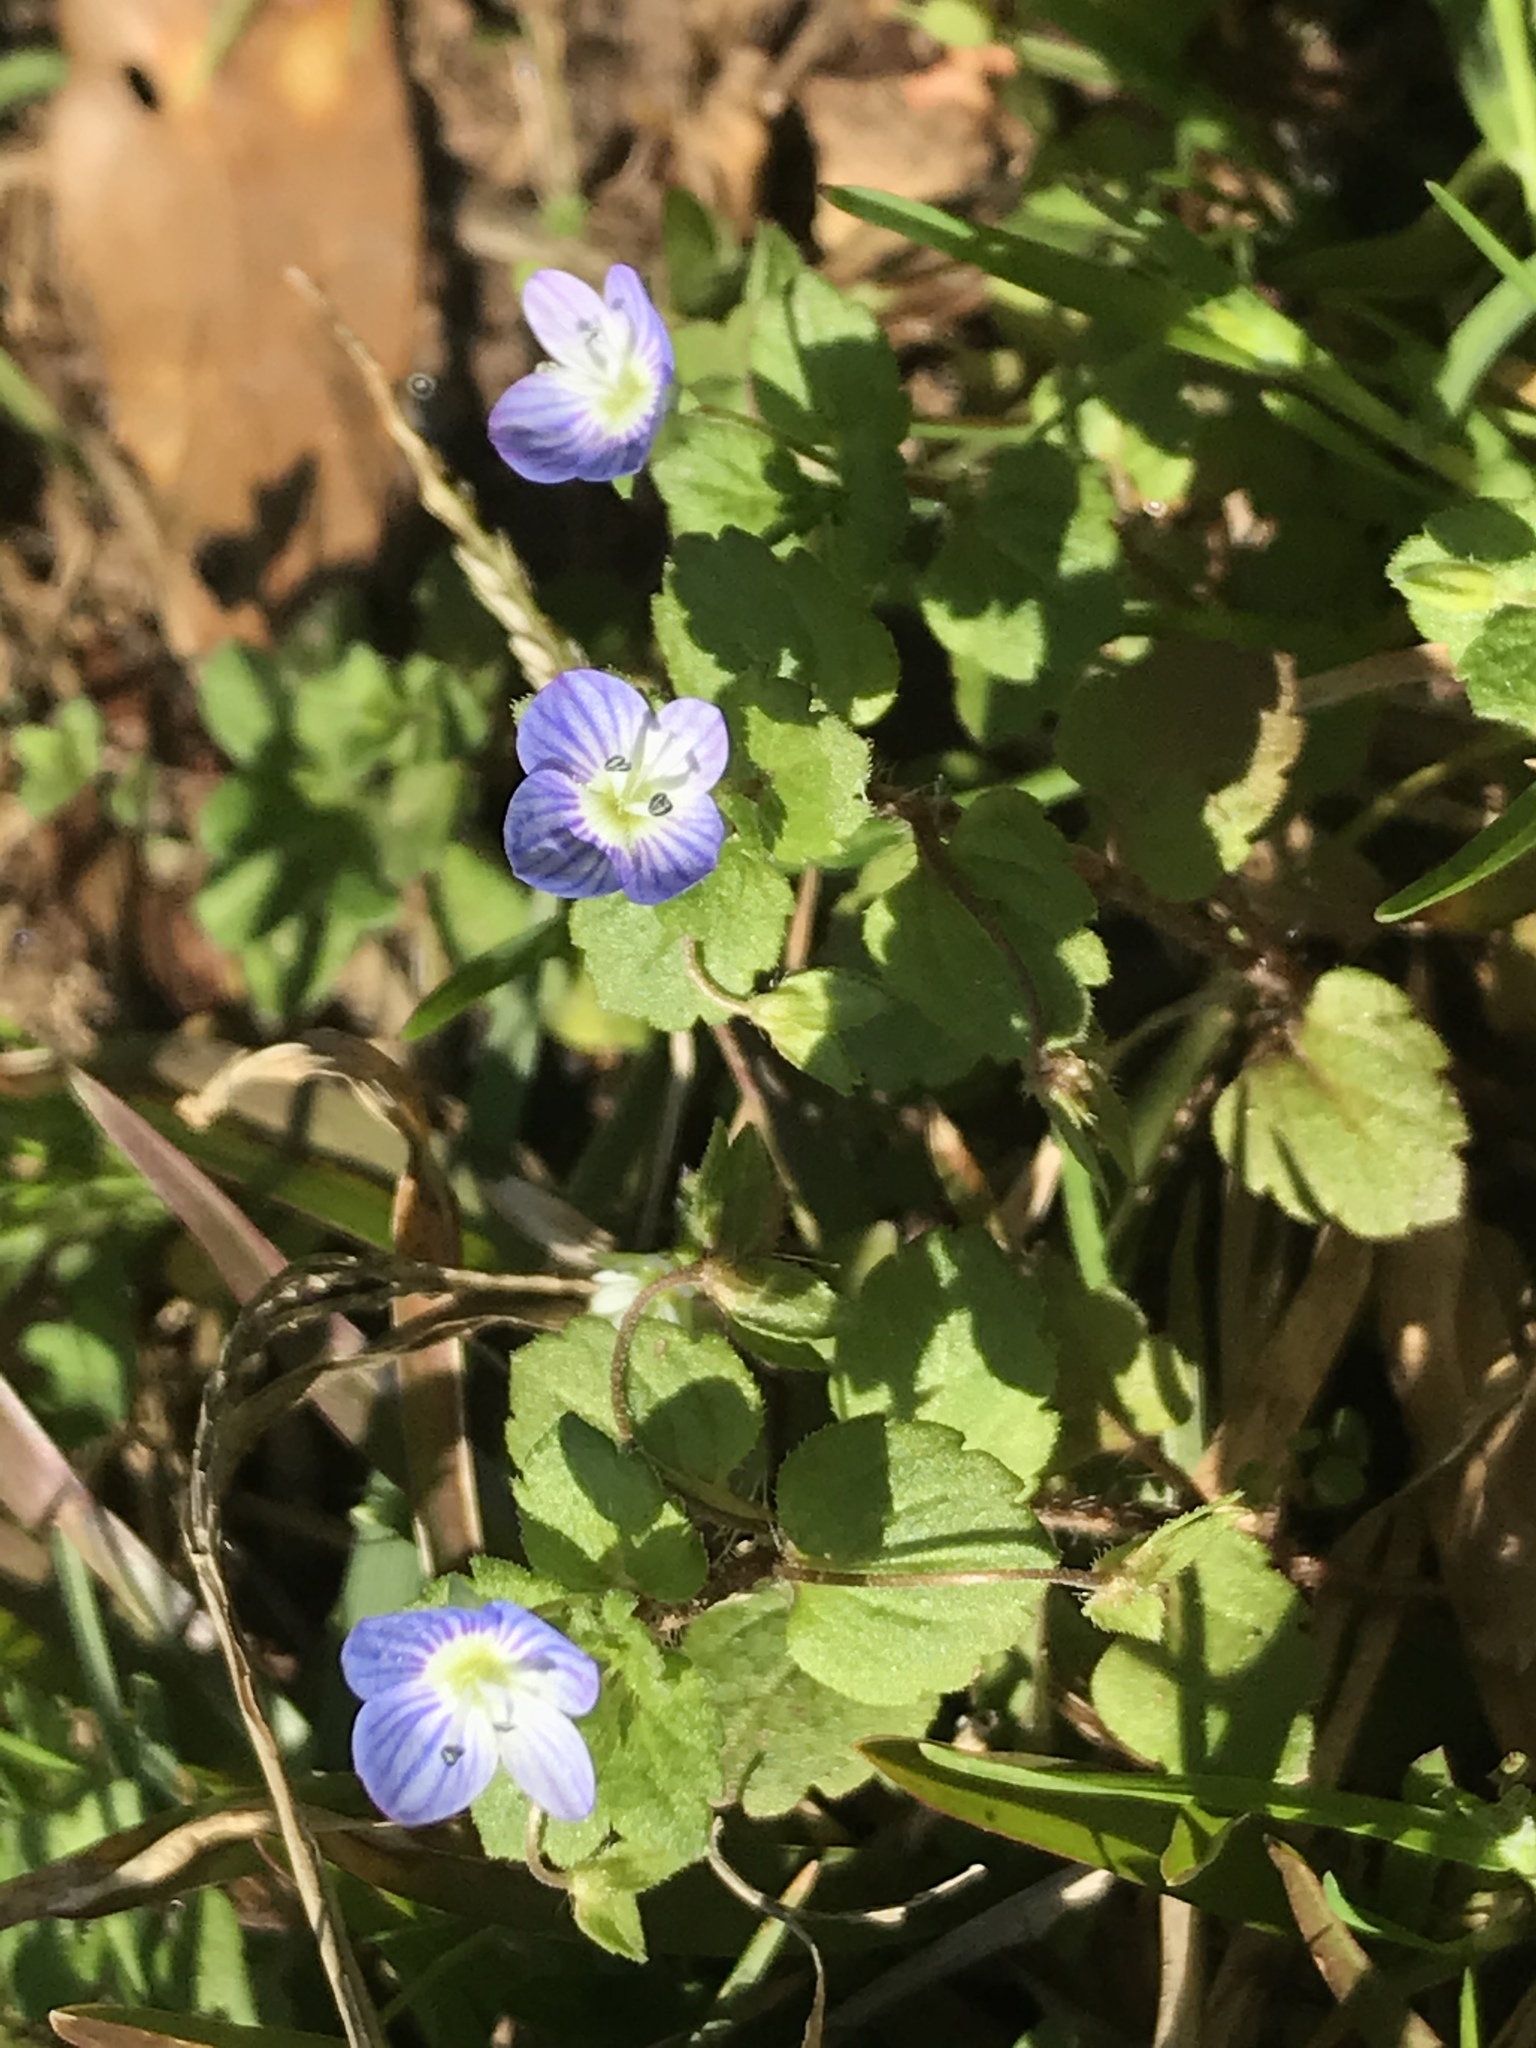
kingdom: Plantae
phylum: Tracheophyta
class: Magnoliopsida
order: Lamiales
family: Plantaginaceae
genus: Veronica
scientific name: Veronica persica
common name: Common field-speedwell
